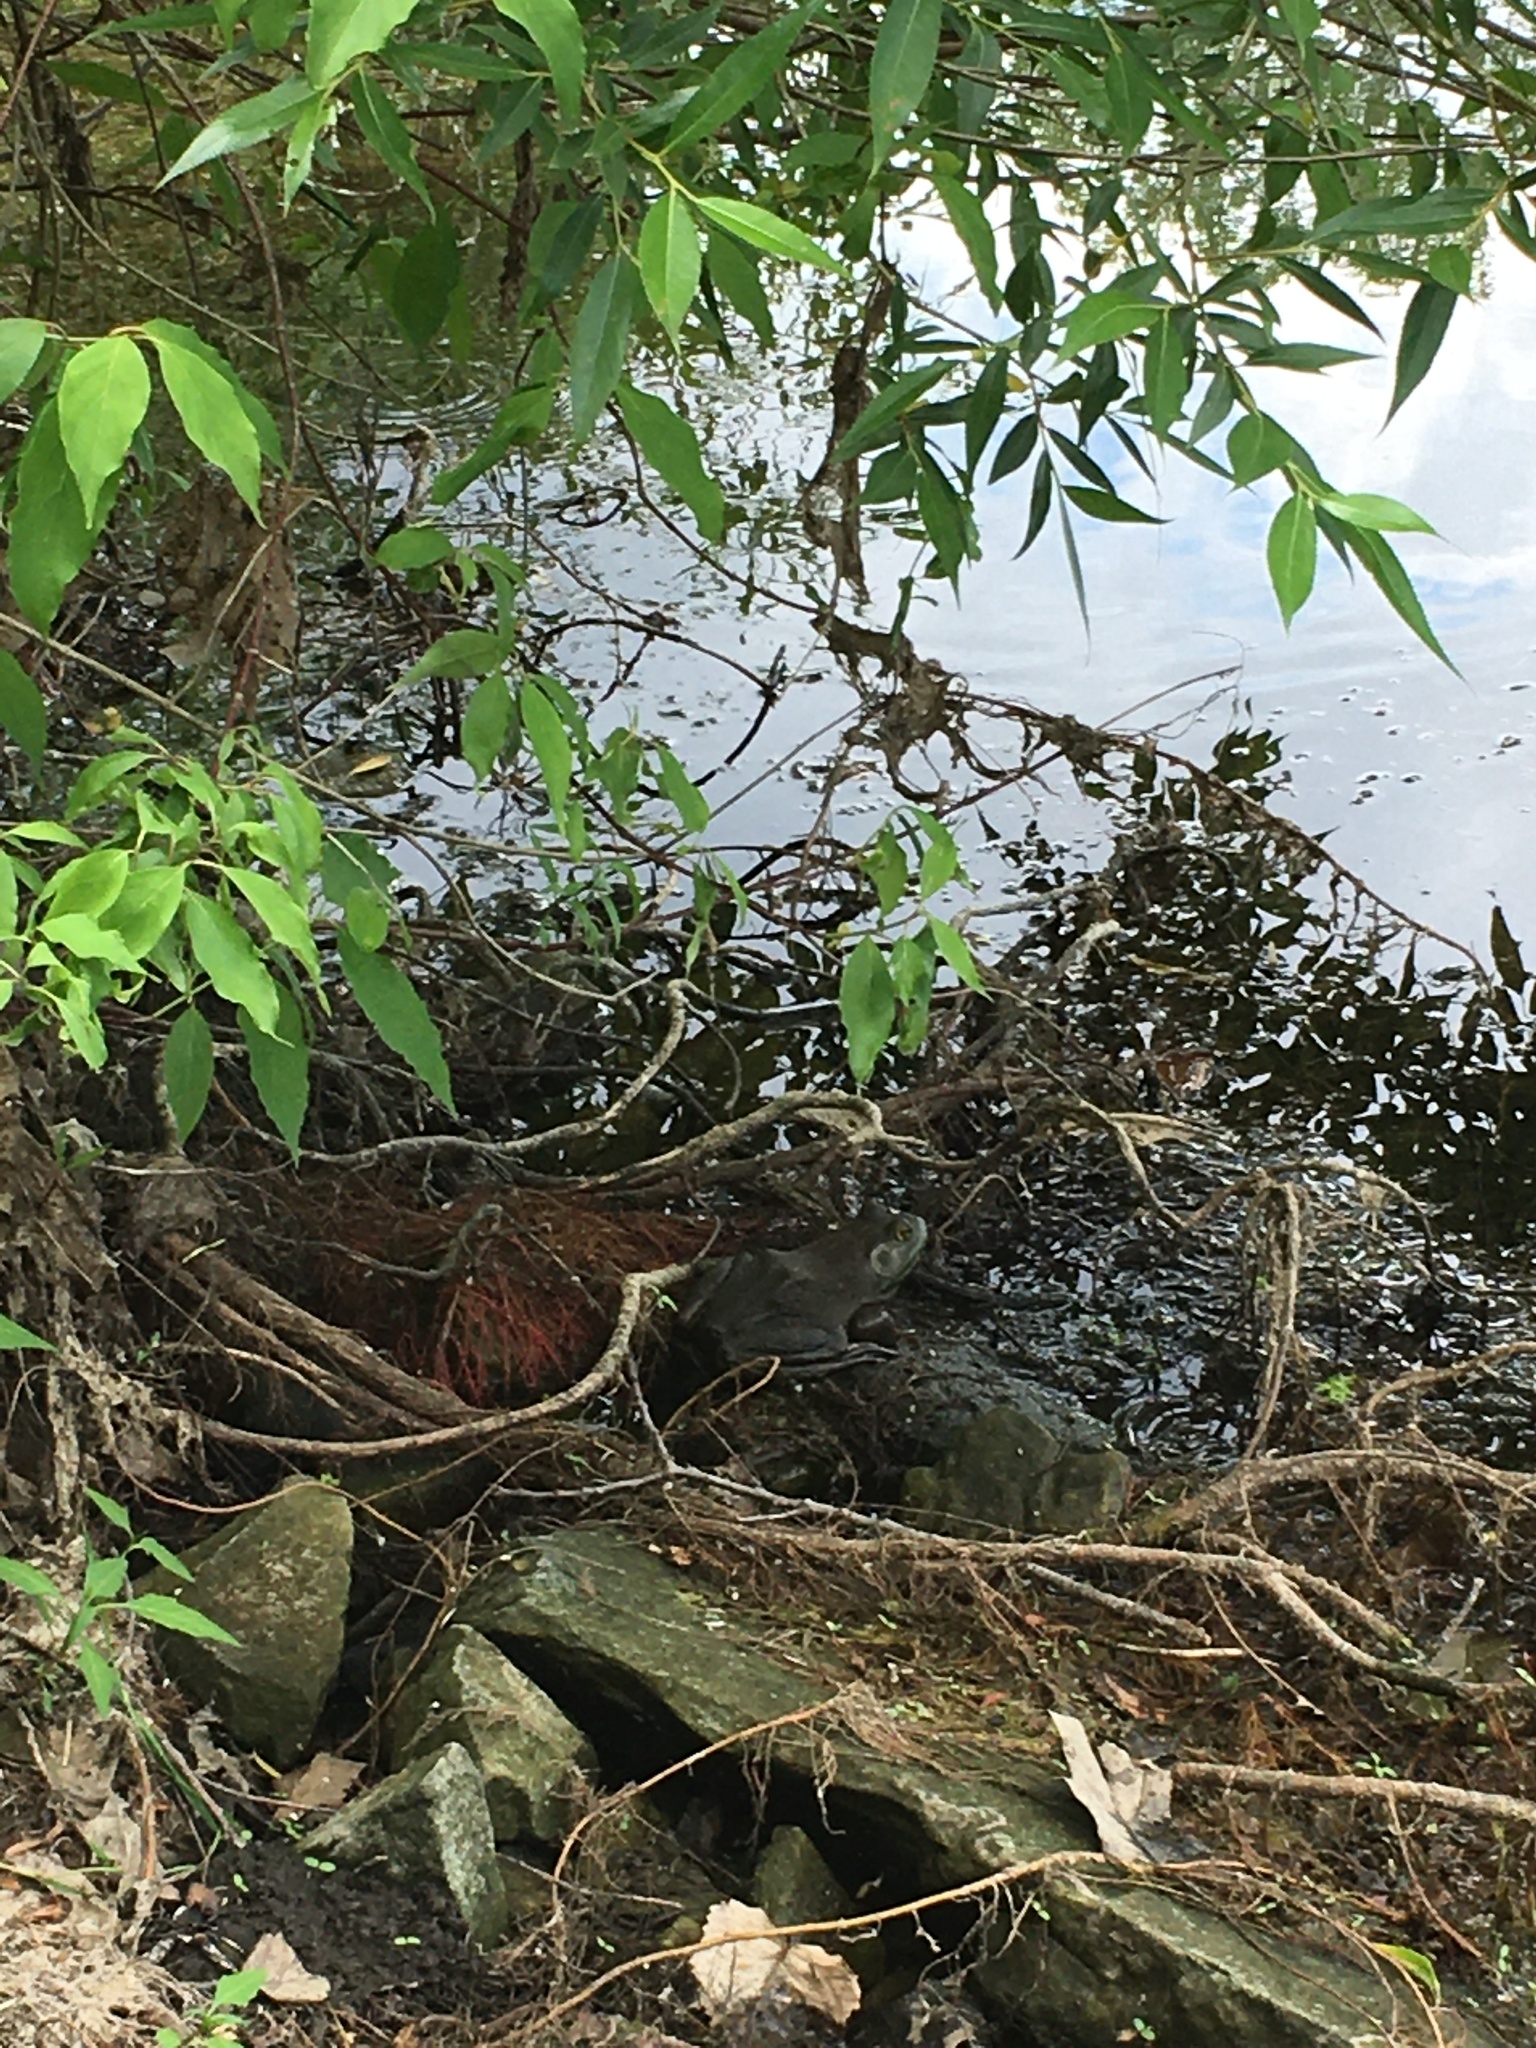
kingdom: Animalia
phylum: Chordata
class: Amphibia
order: Anura
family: Ranidae
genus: Lithobates
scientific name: Lithobates catesbeianus
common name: American bullfrog
